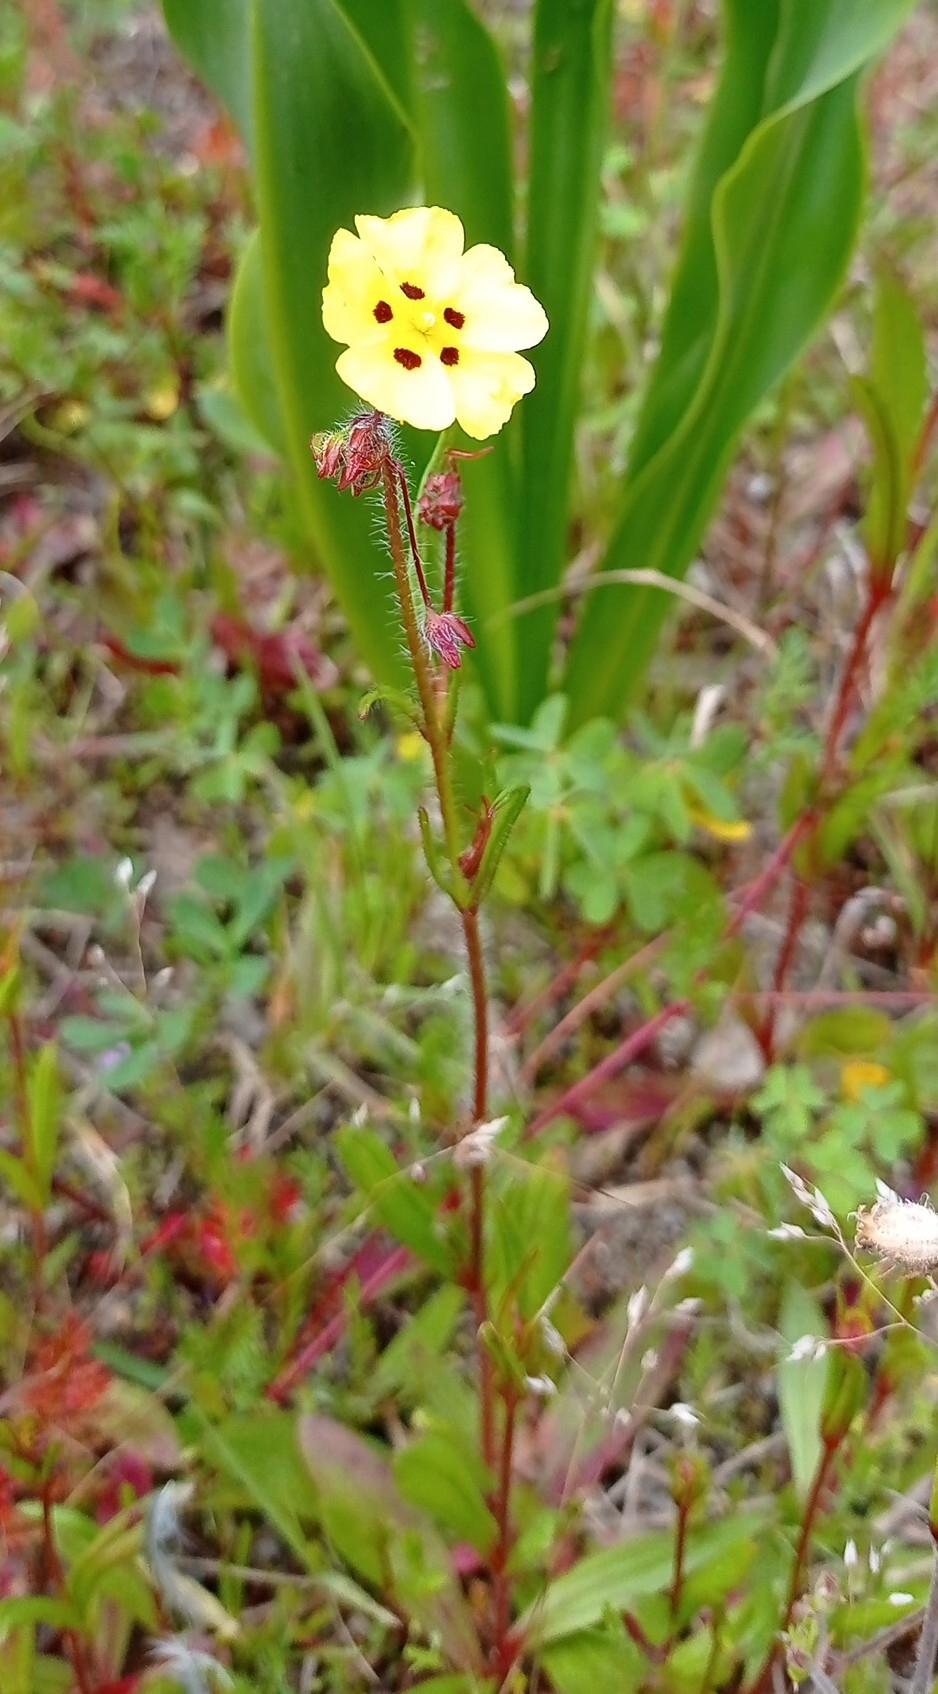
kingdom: Plantae
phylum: Tracheophyta
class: Magnoliopsida
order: Malvales
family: Cistaceae
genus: Tuberaria
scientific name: Tuberaria guttata
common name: Spotted rock-rose
